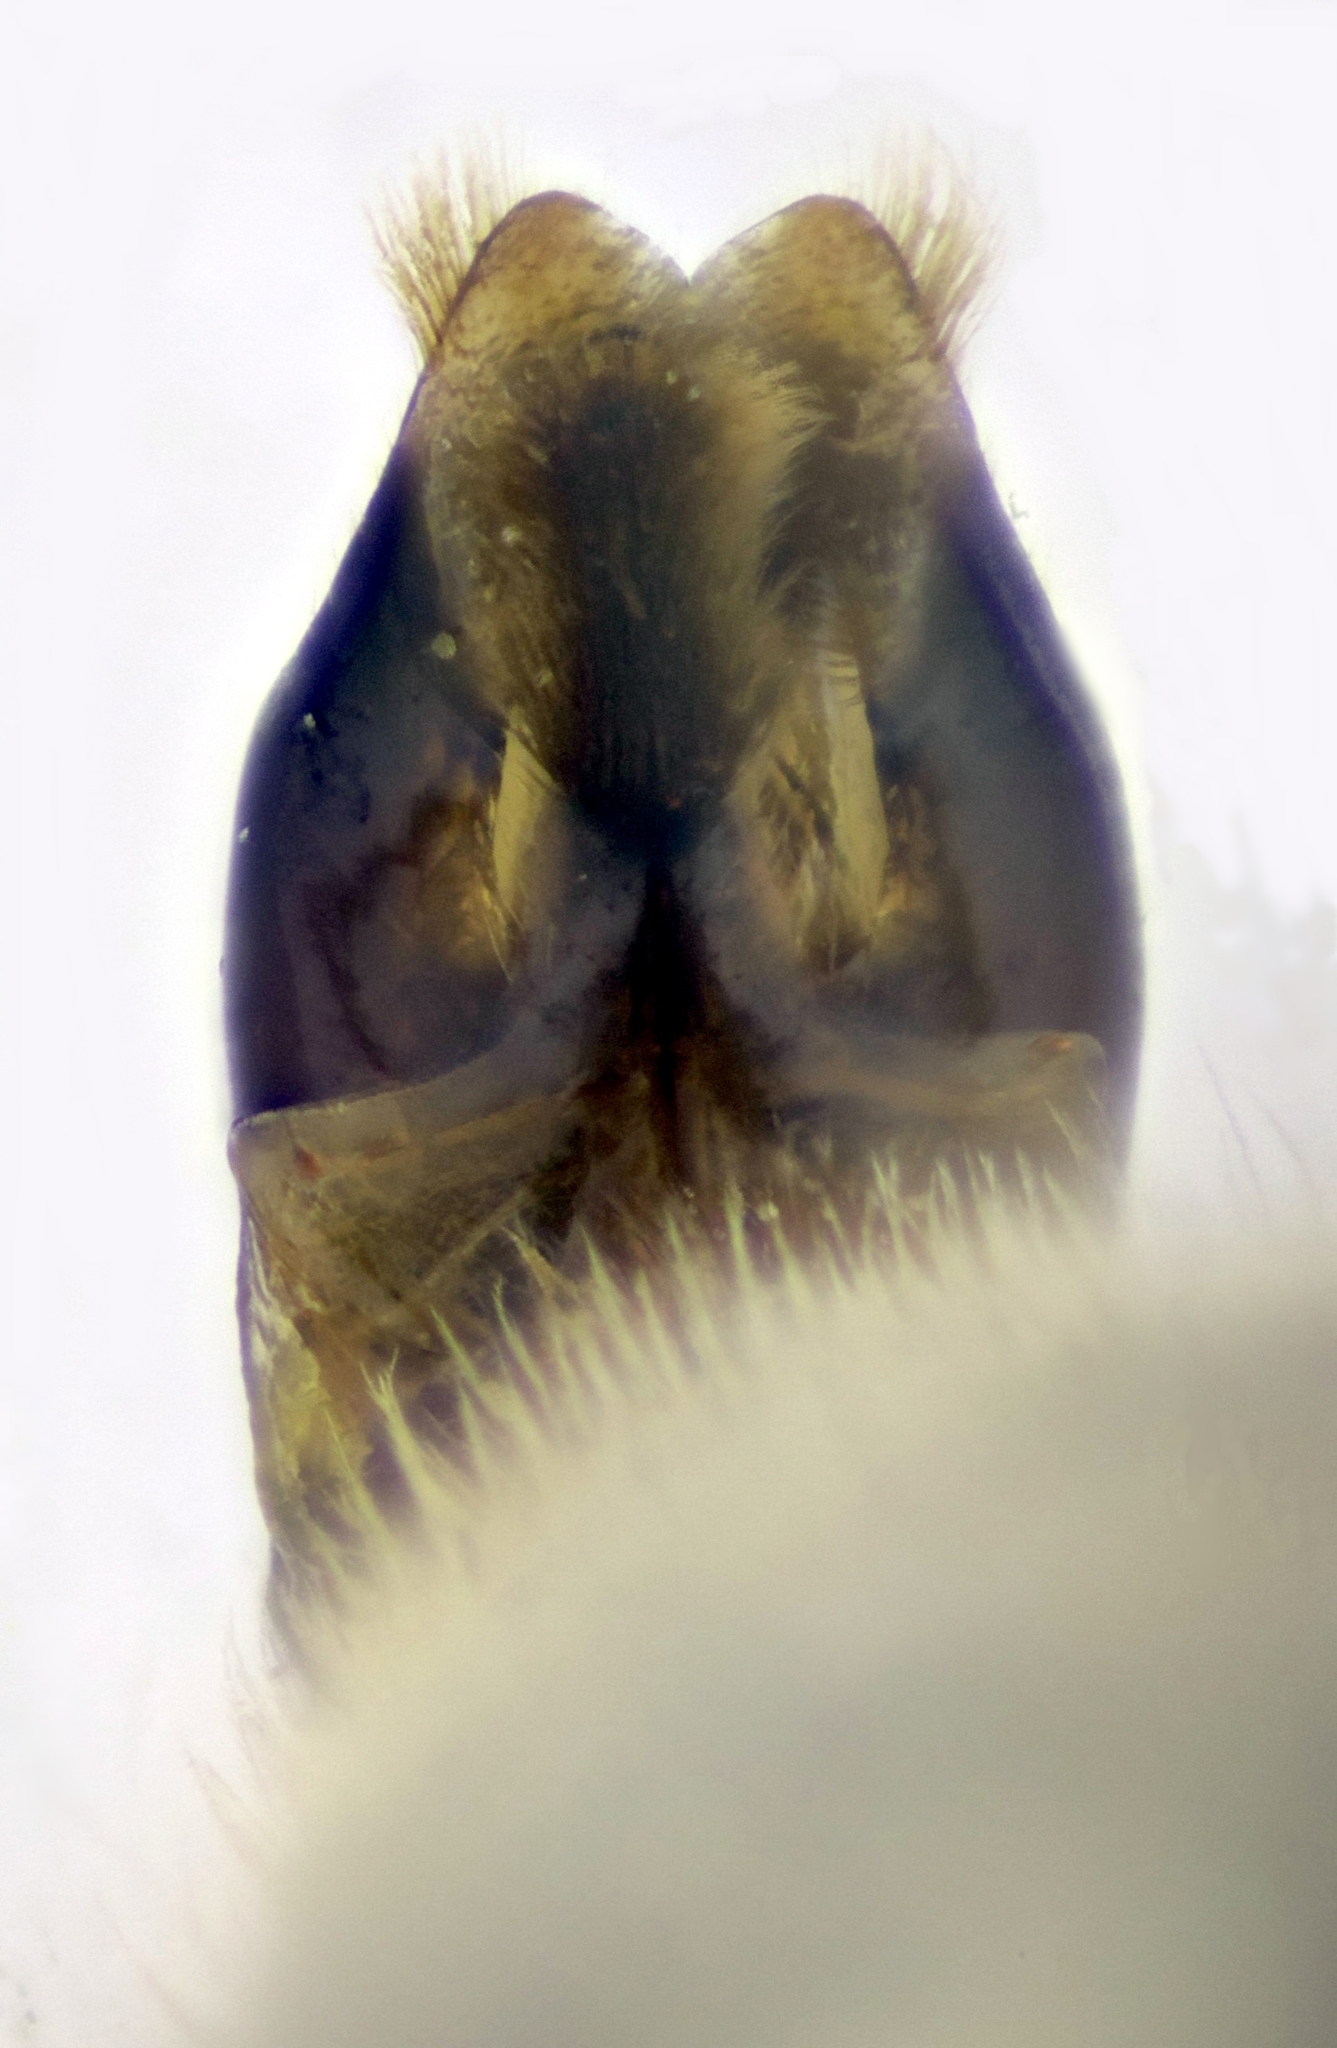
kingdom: Animalia
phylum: Arthropoda
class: Insecta
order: Hymenoptera
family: Andrenidae
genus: Andrena
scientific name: Andrena schencki
